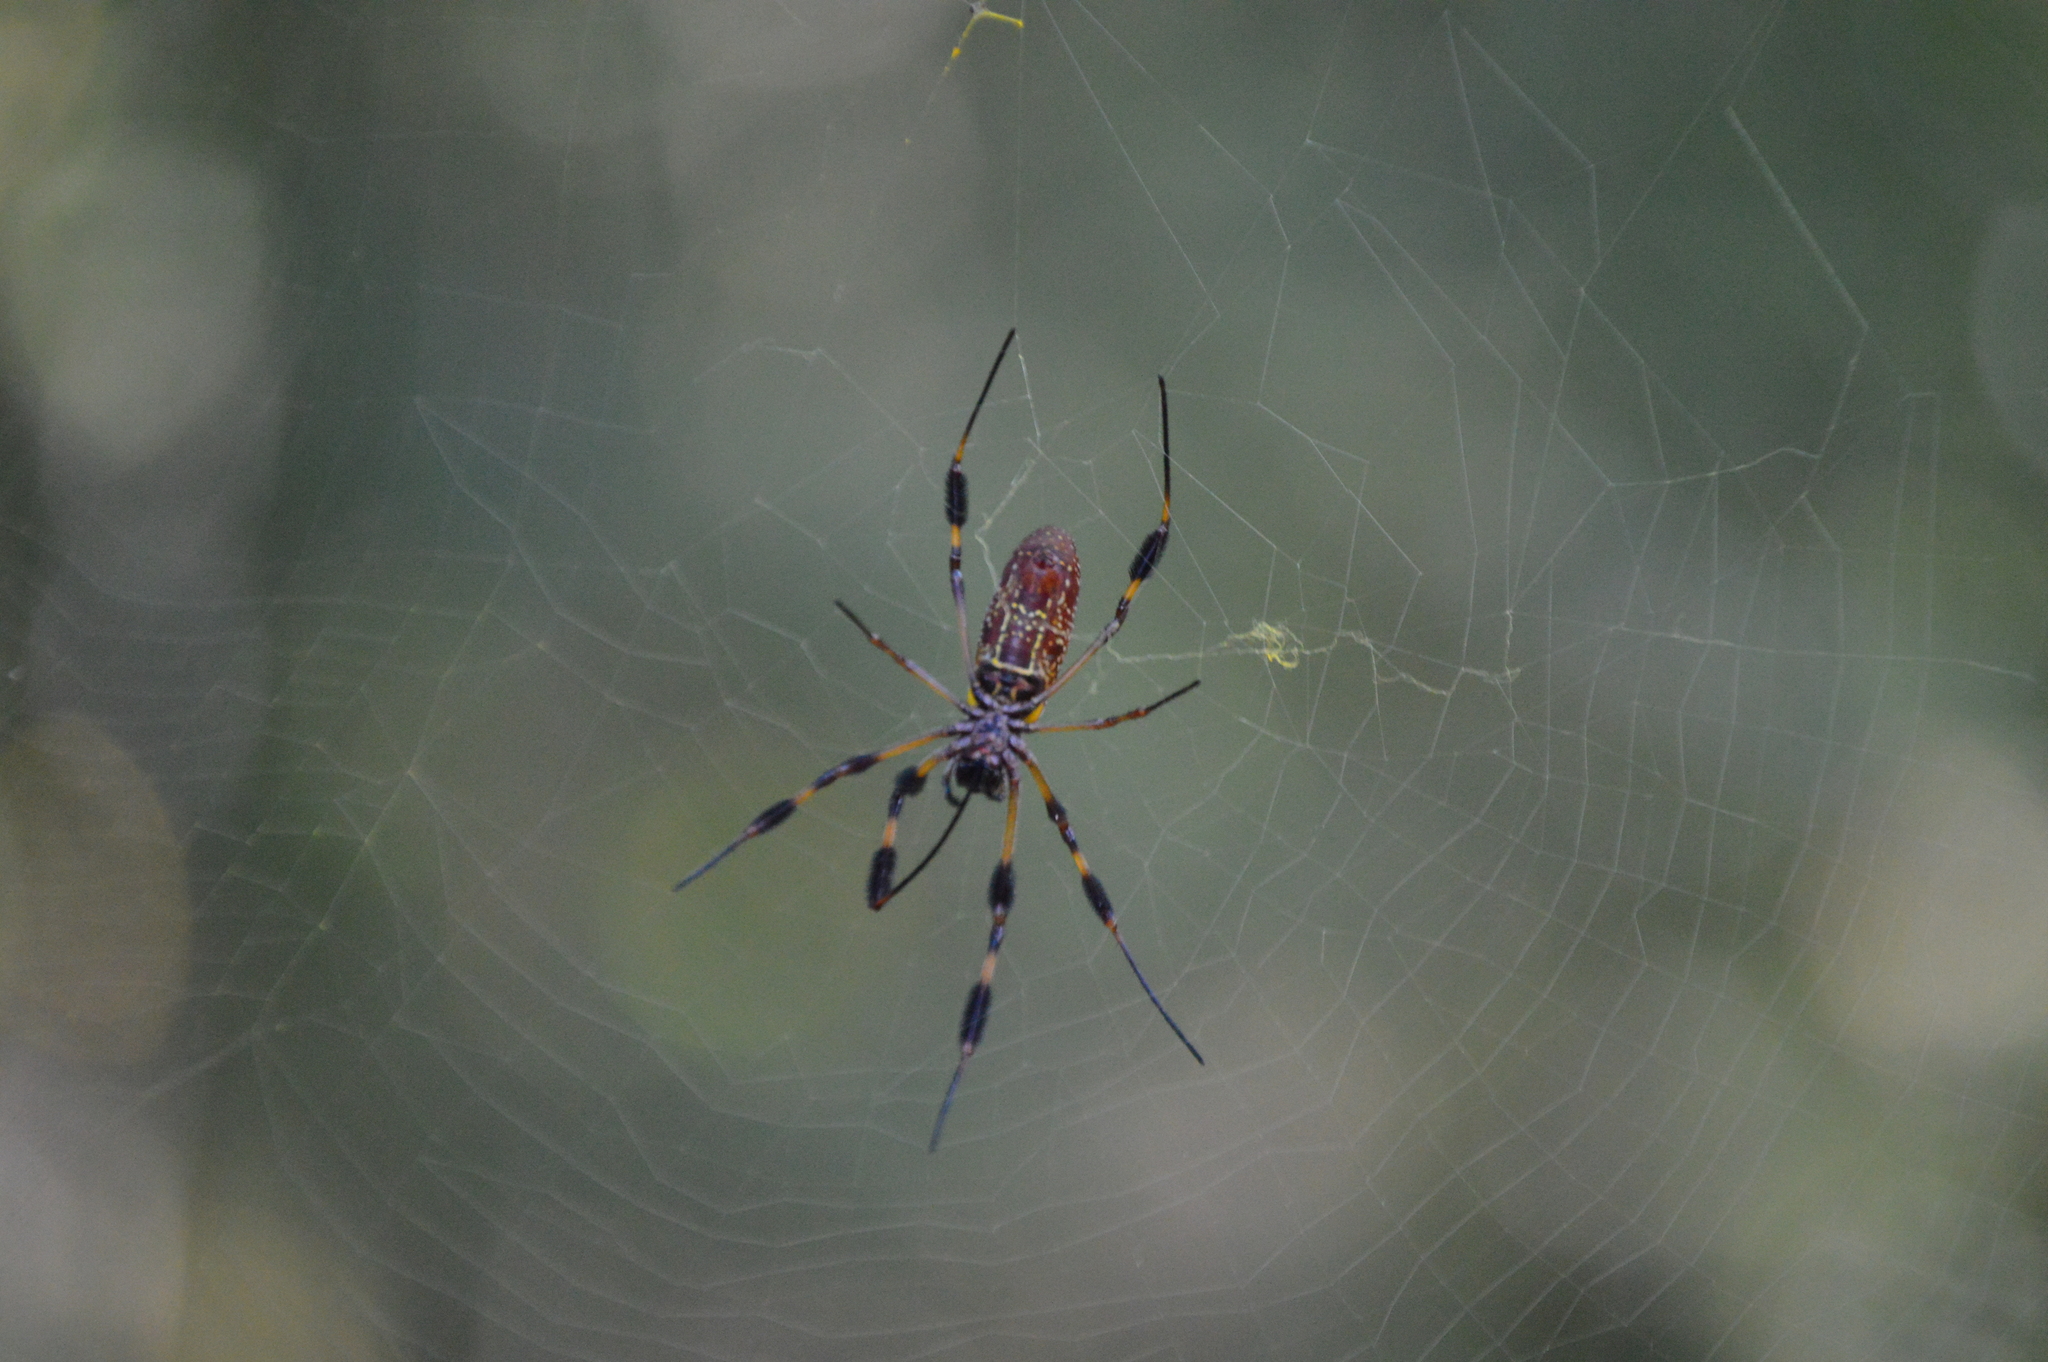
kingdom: Animalia
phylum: Arthropoda
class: Arachnida
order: Araneae
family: Araneidae
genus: Trichonephila
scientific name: Trichonephila clavipes
